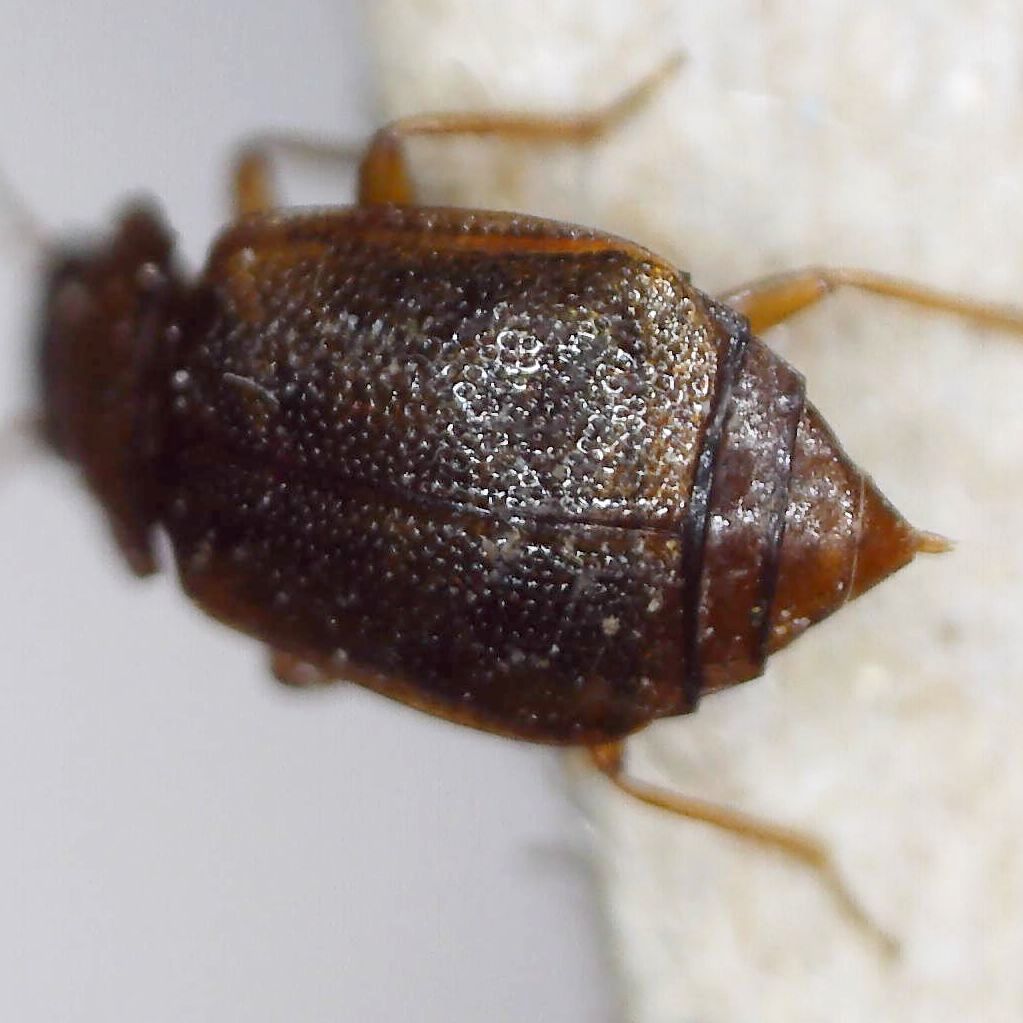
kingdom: Animalia
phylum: Arthropoda
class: Insecta
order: Coleoptera
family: Staphylinidae
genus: Anthobium
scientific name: Anthobium unicolor
